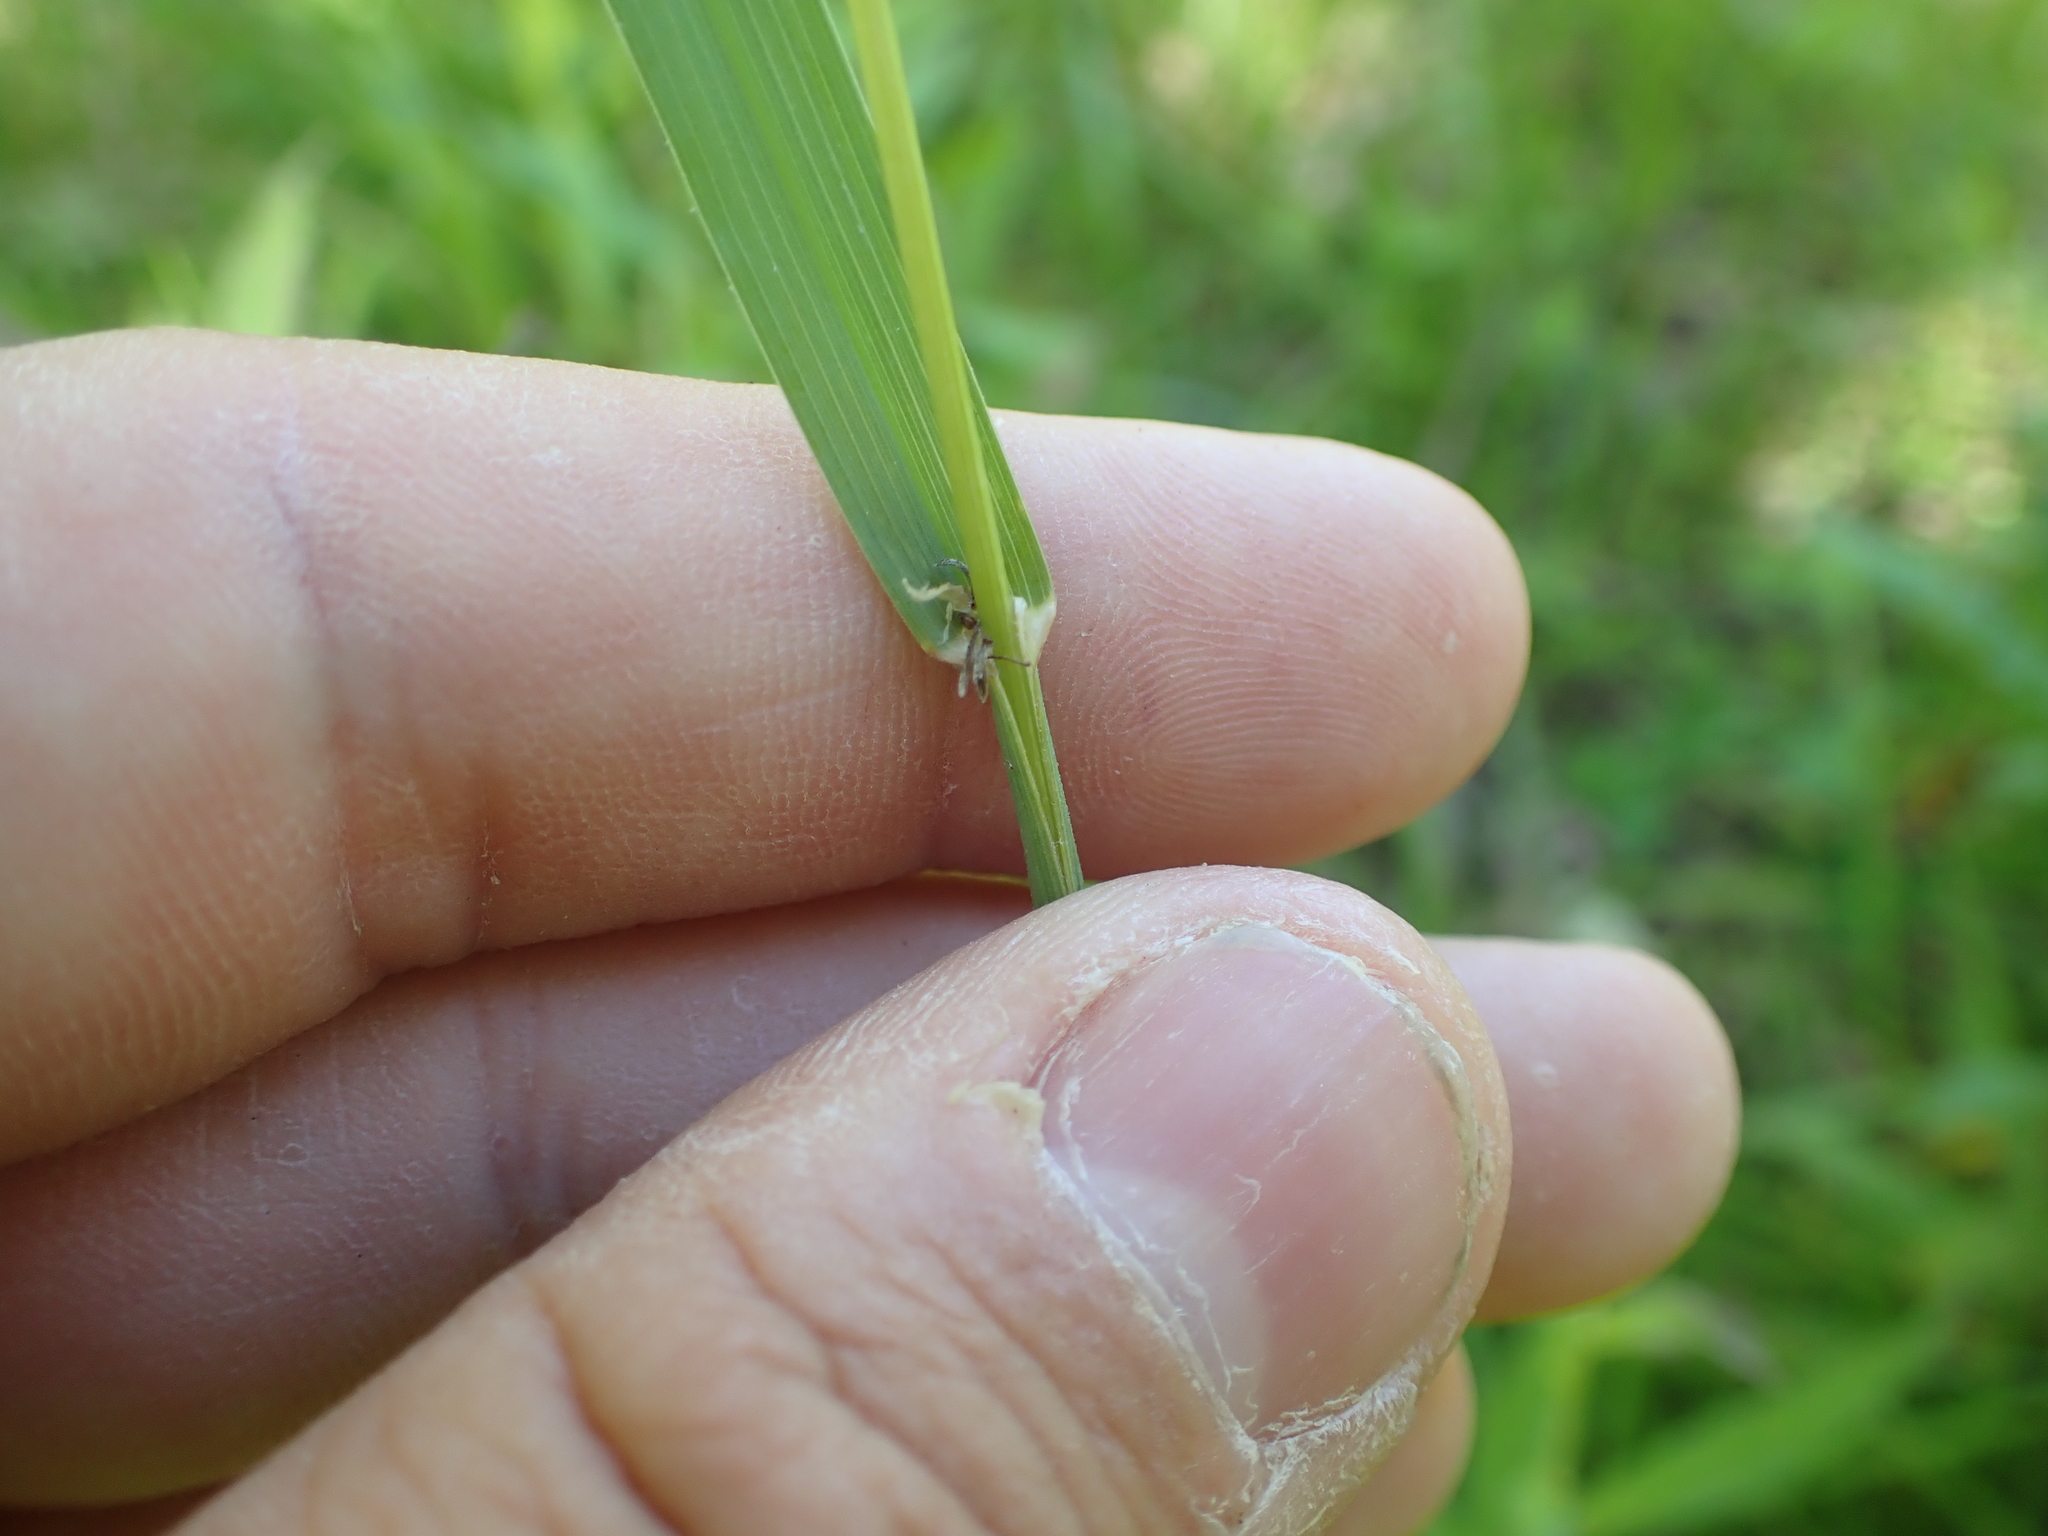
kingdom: Plantae
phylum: Tracheophyta
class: Liliopsida
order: Poales
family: Poaceae
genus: Dactylis
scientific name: Dactylis glomerata
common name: Orchardgrass
